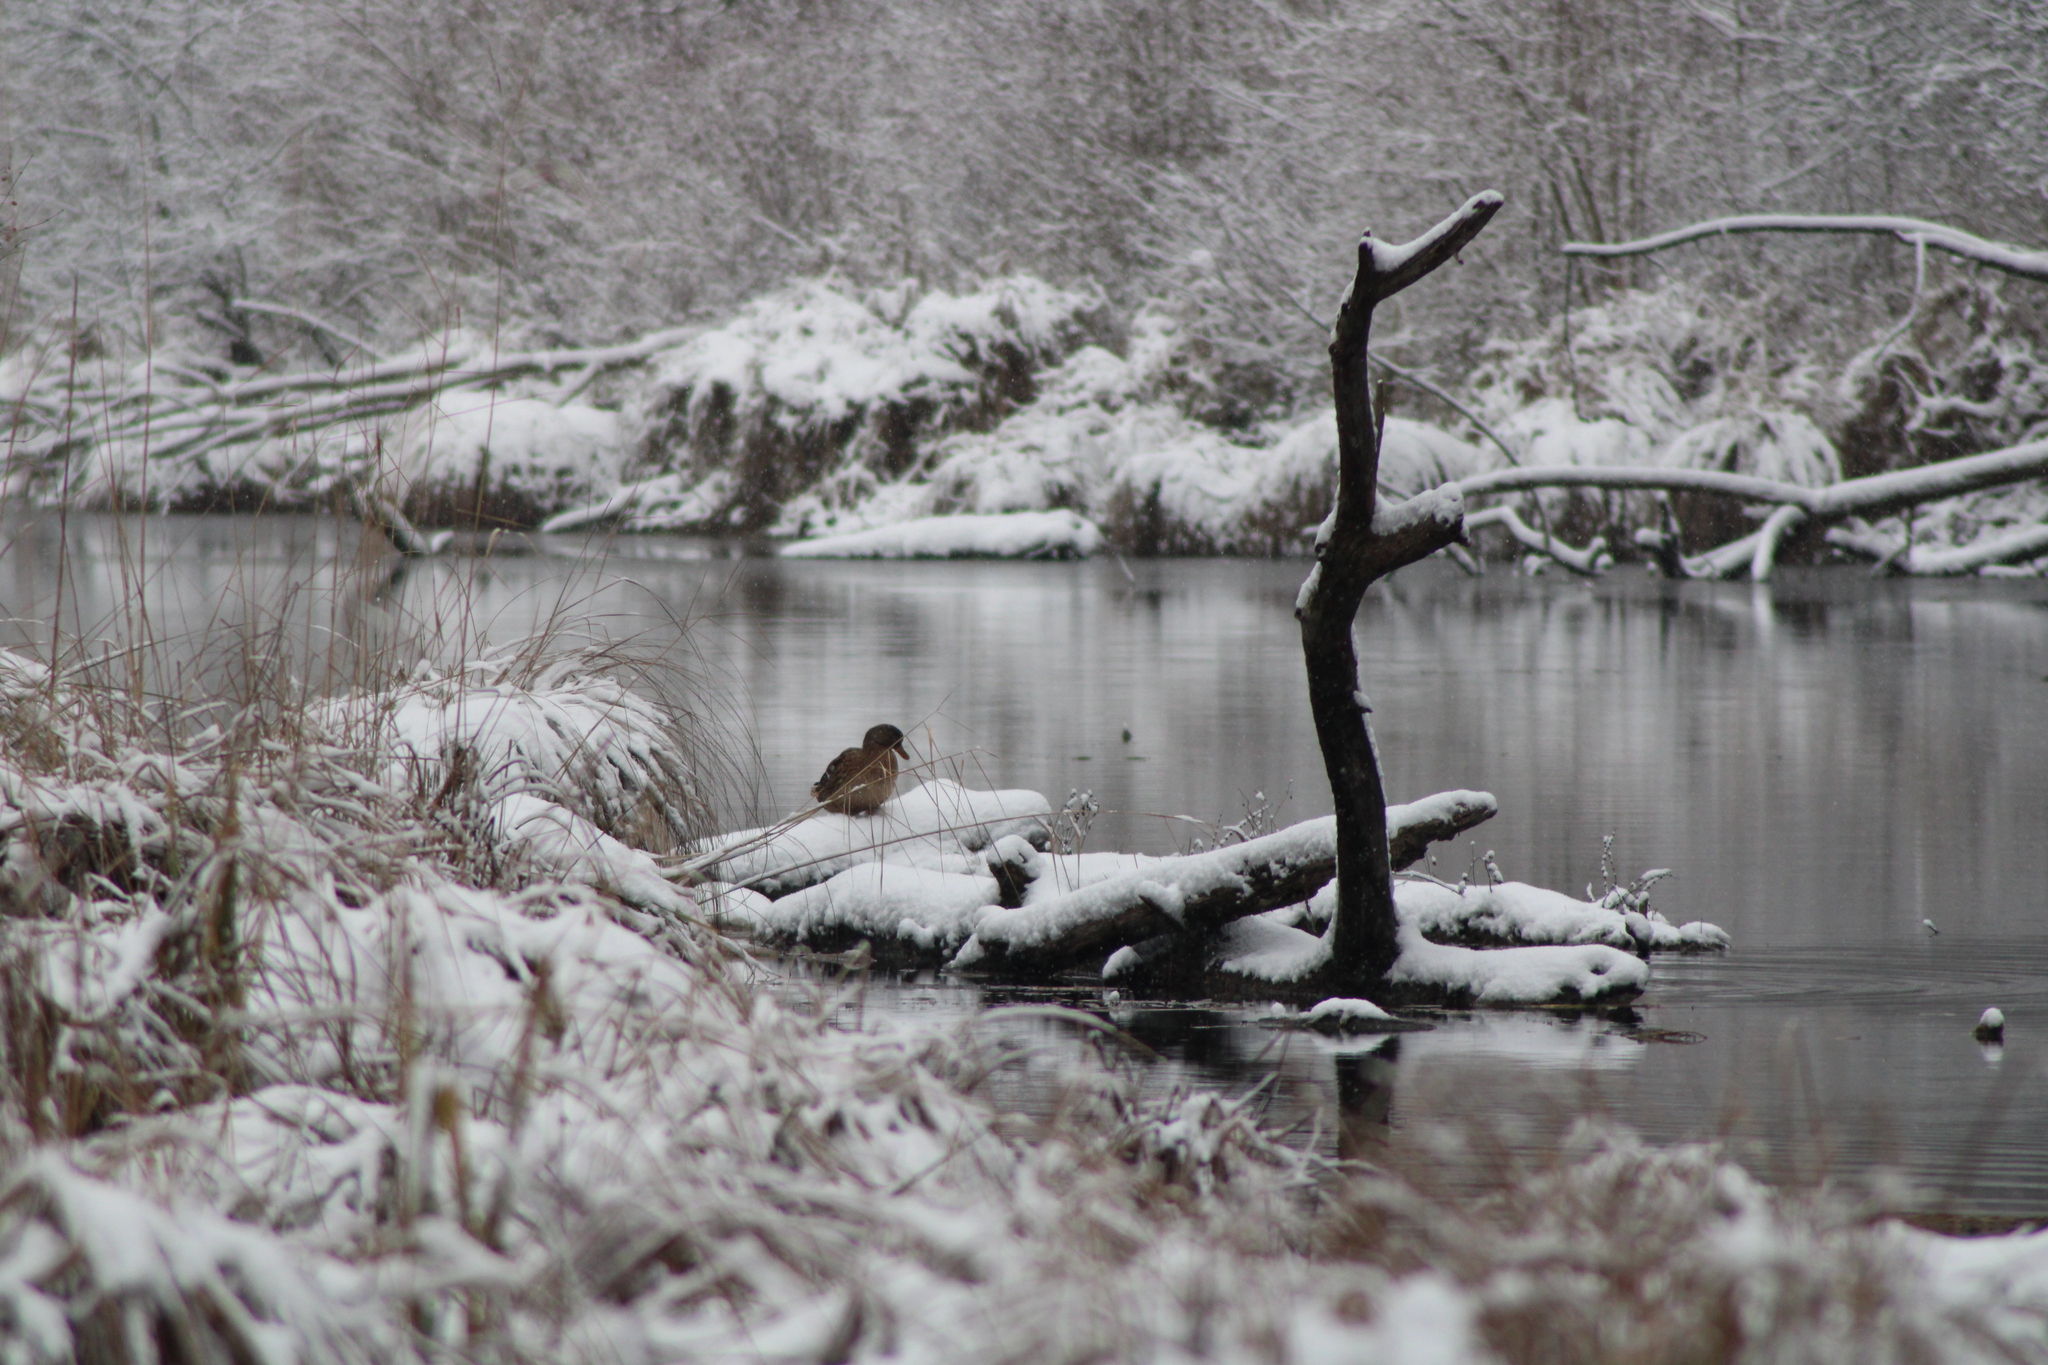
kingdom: Animalia
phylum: Chordata
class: Aves
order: Anseriformes
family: Anatidae
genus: Anas
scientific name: Anas platyrhynchos
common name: Mallard
